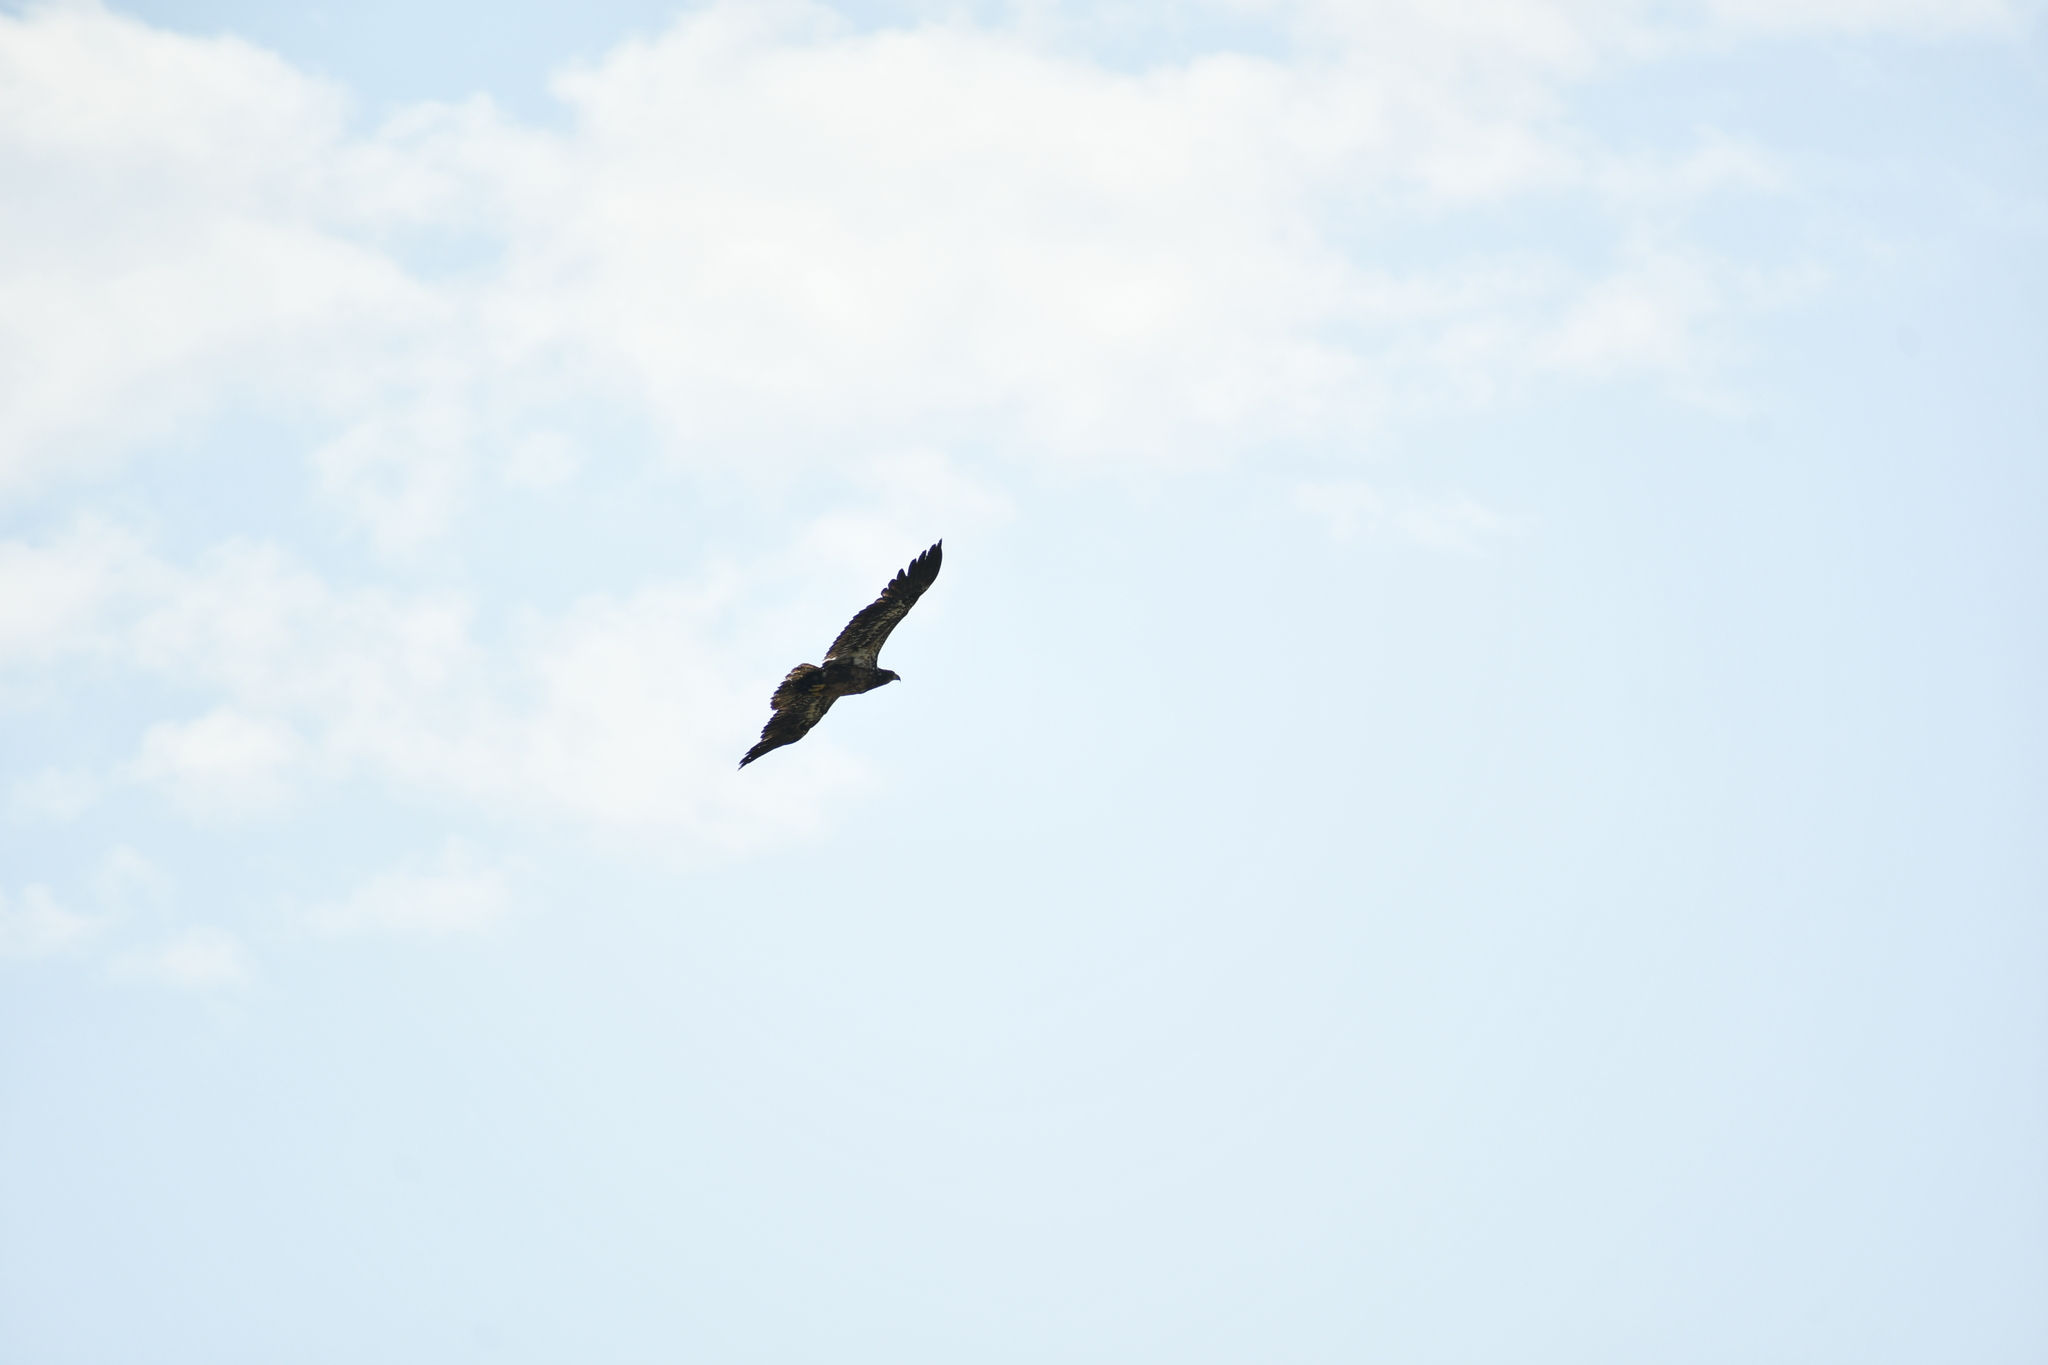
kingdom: Animalia
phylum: Chordata
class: Aves
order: Accipitriformes
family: Accipitridae
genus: Haliaeetus
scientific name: Haliaeetus leucocephalus
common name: Bald eagle
